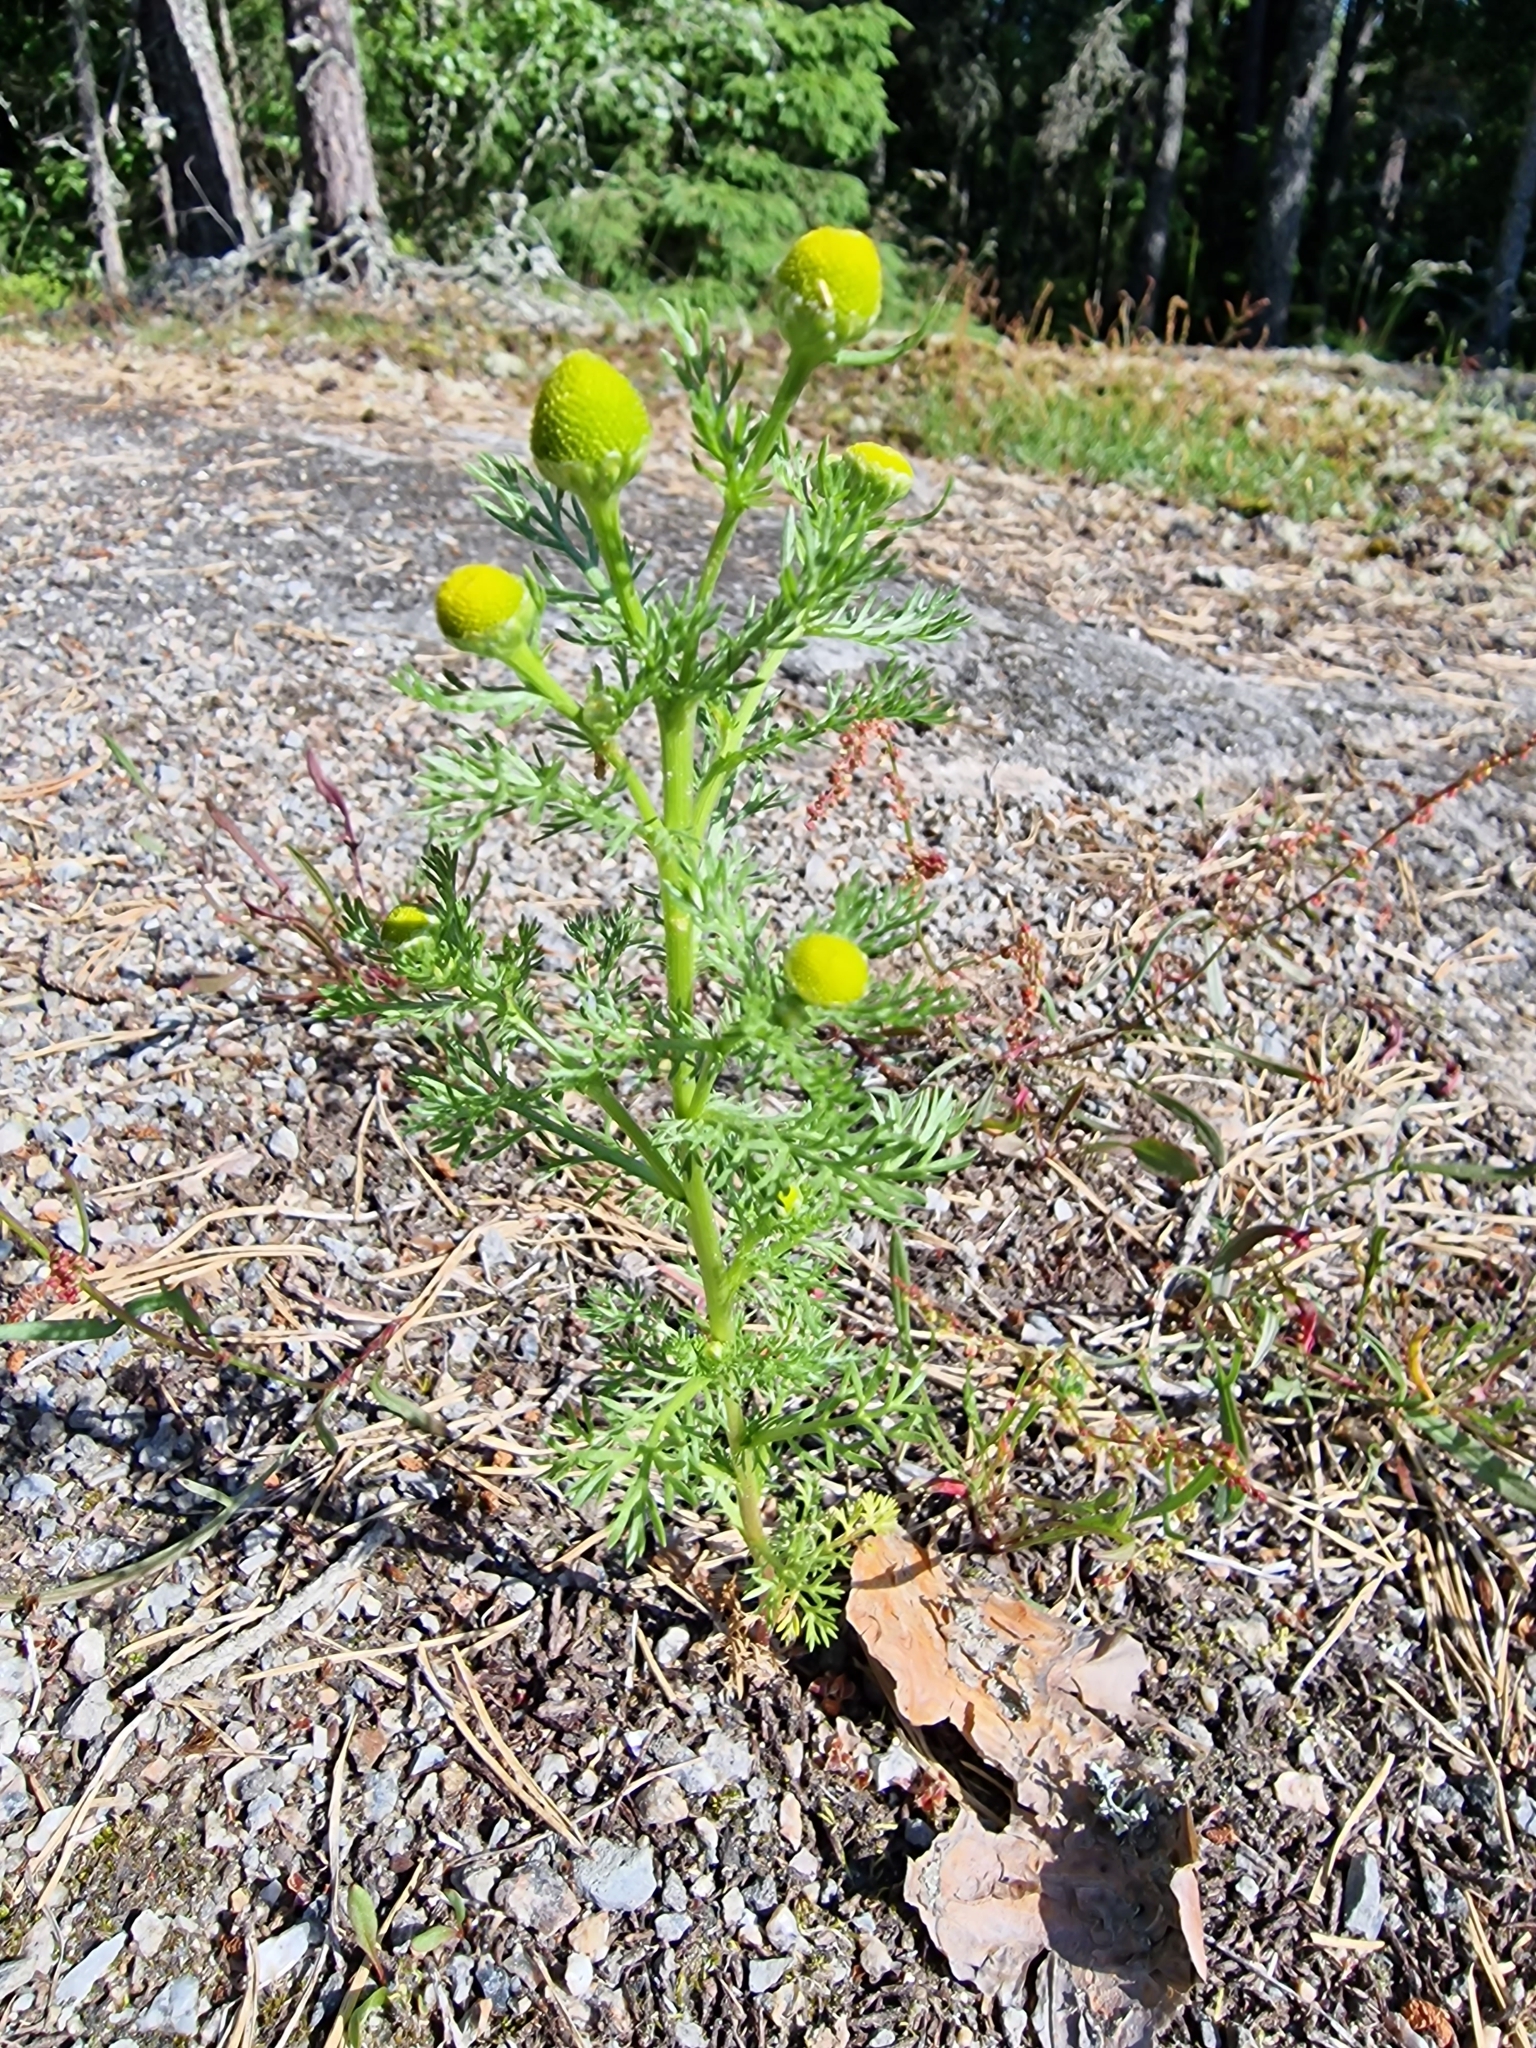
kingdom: Plantae
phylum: Tracheophyta
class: Magnoliopsida
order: Asterales
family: Asteraceae
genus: Matricaria
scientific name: Matricaria discoidea
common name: Disc mayweed
